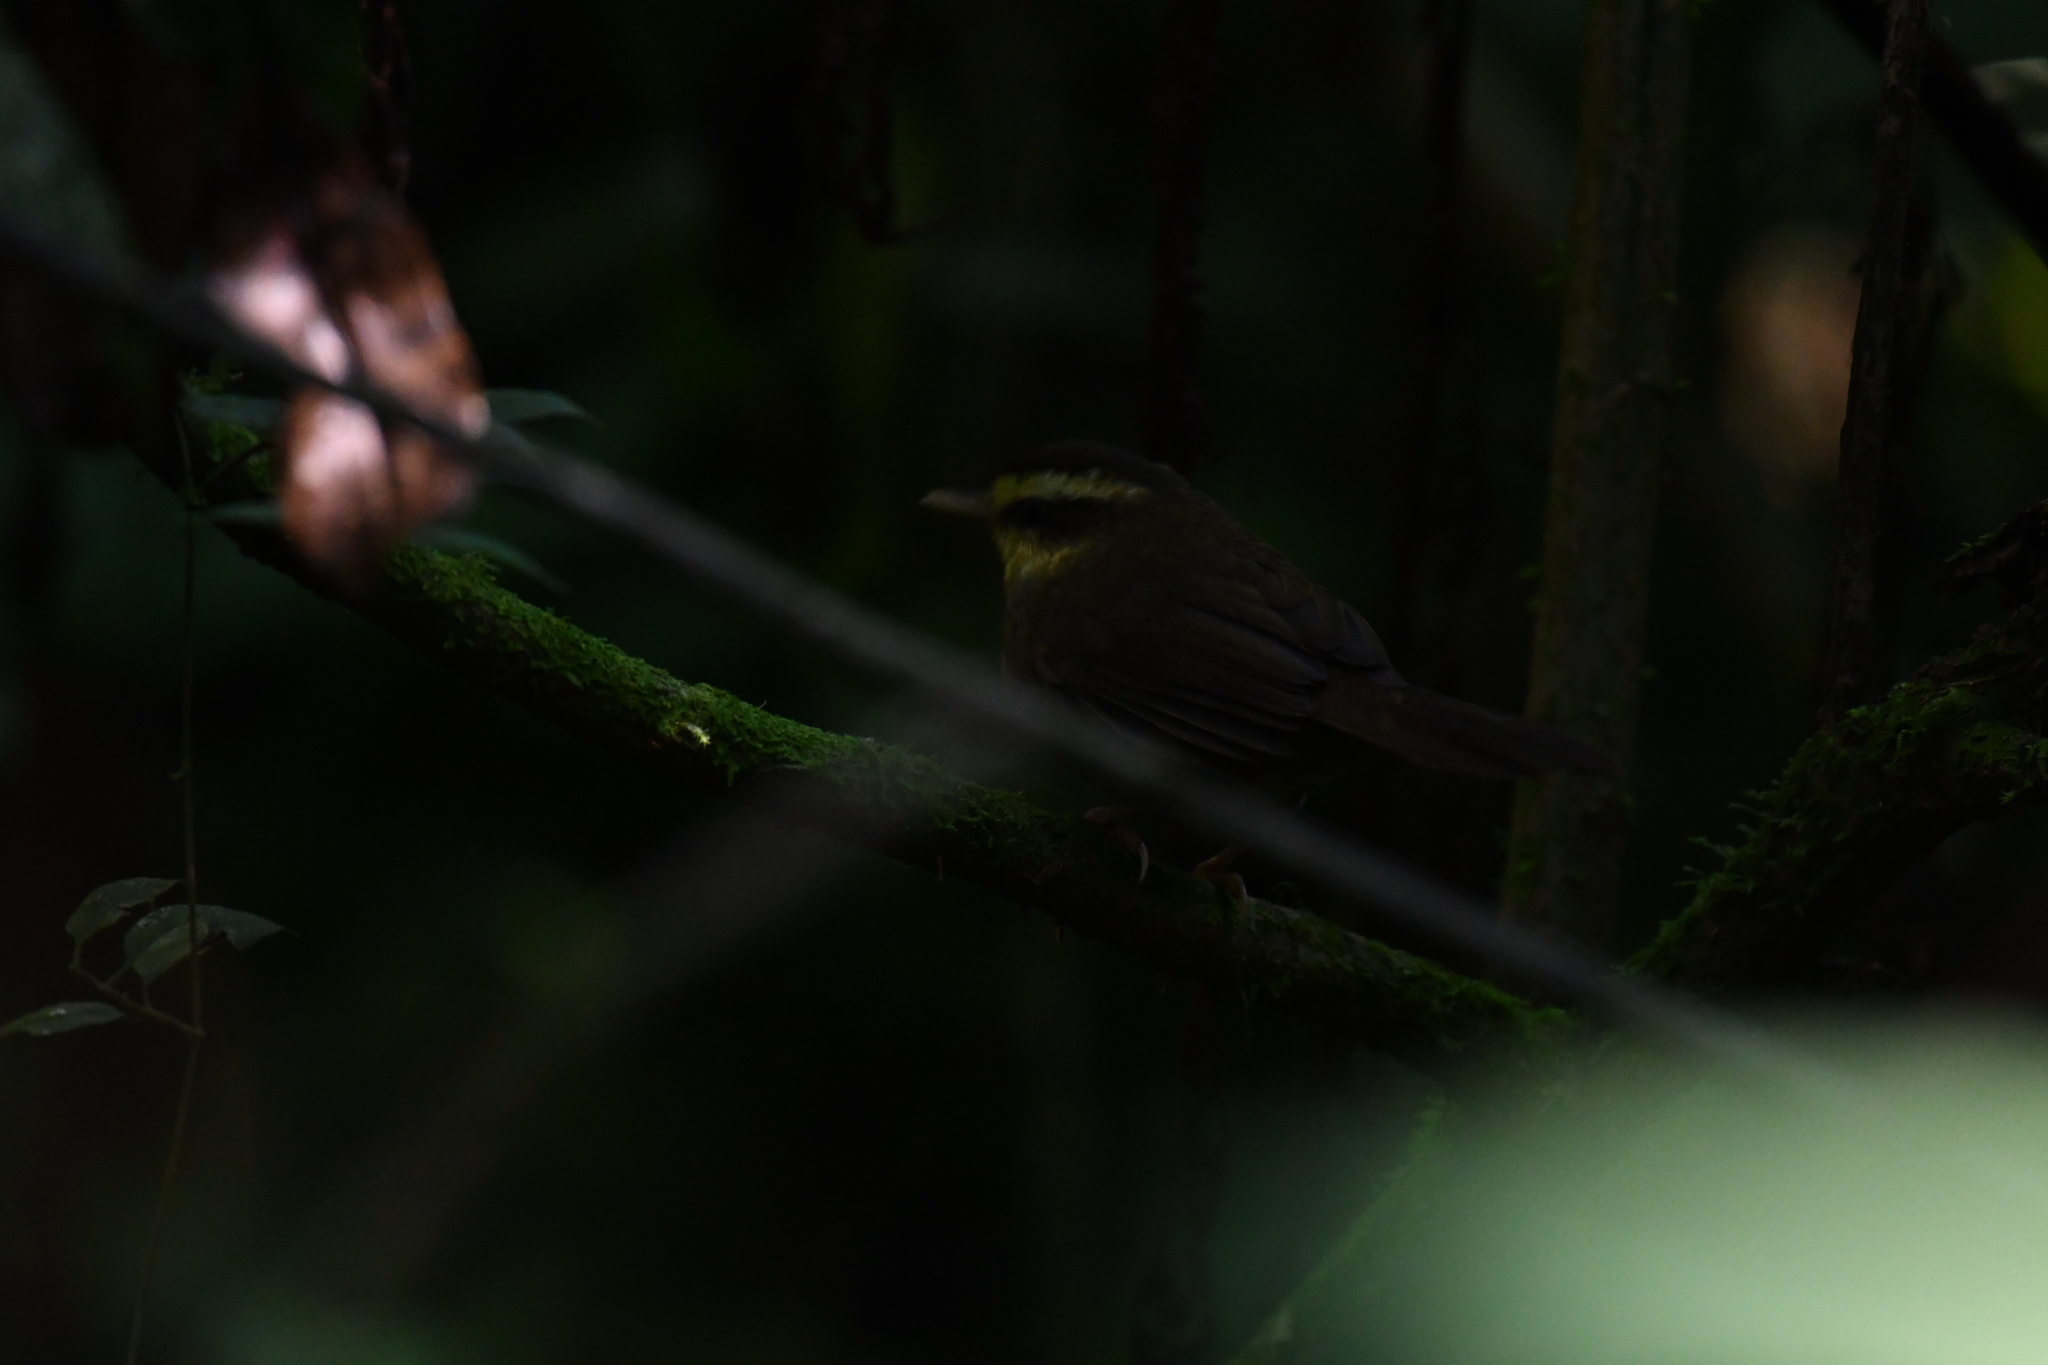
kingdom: Animalia
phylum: Chordata
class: Aves
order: Passeriformes
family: Bernieridae
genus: Crossleyia
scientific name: Crossleyia xanthophrys
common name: Madagascar yellowbrow
